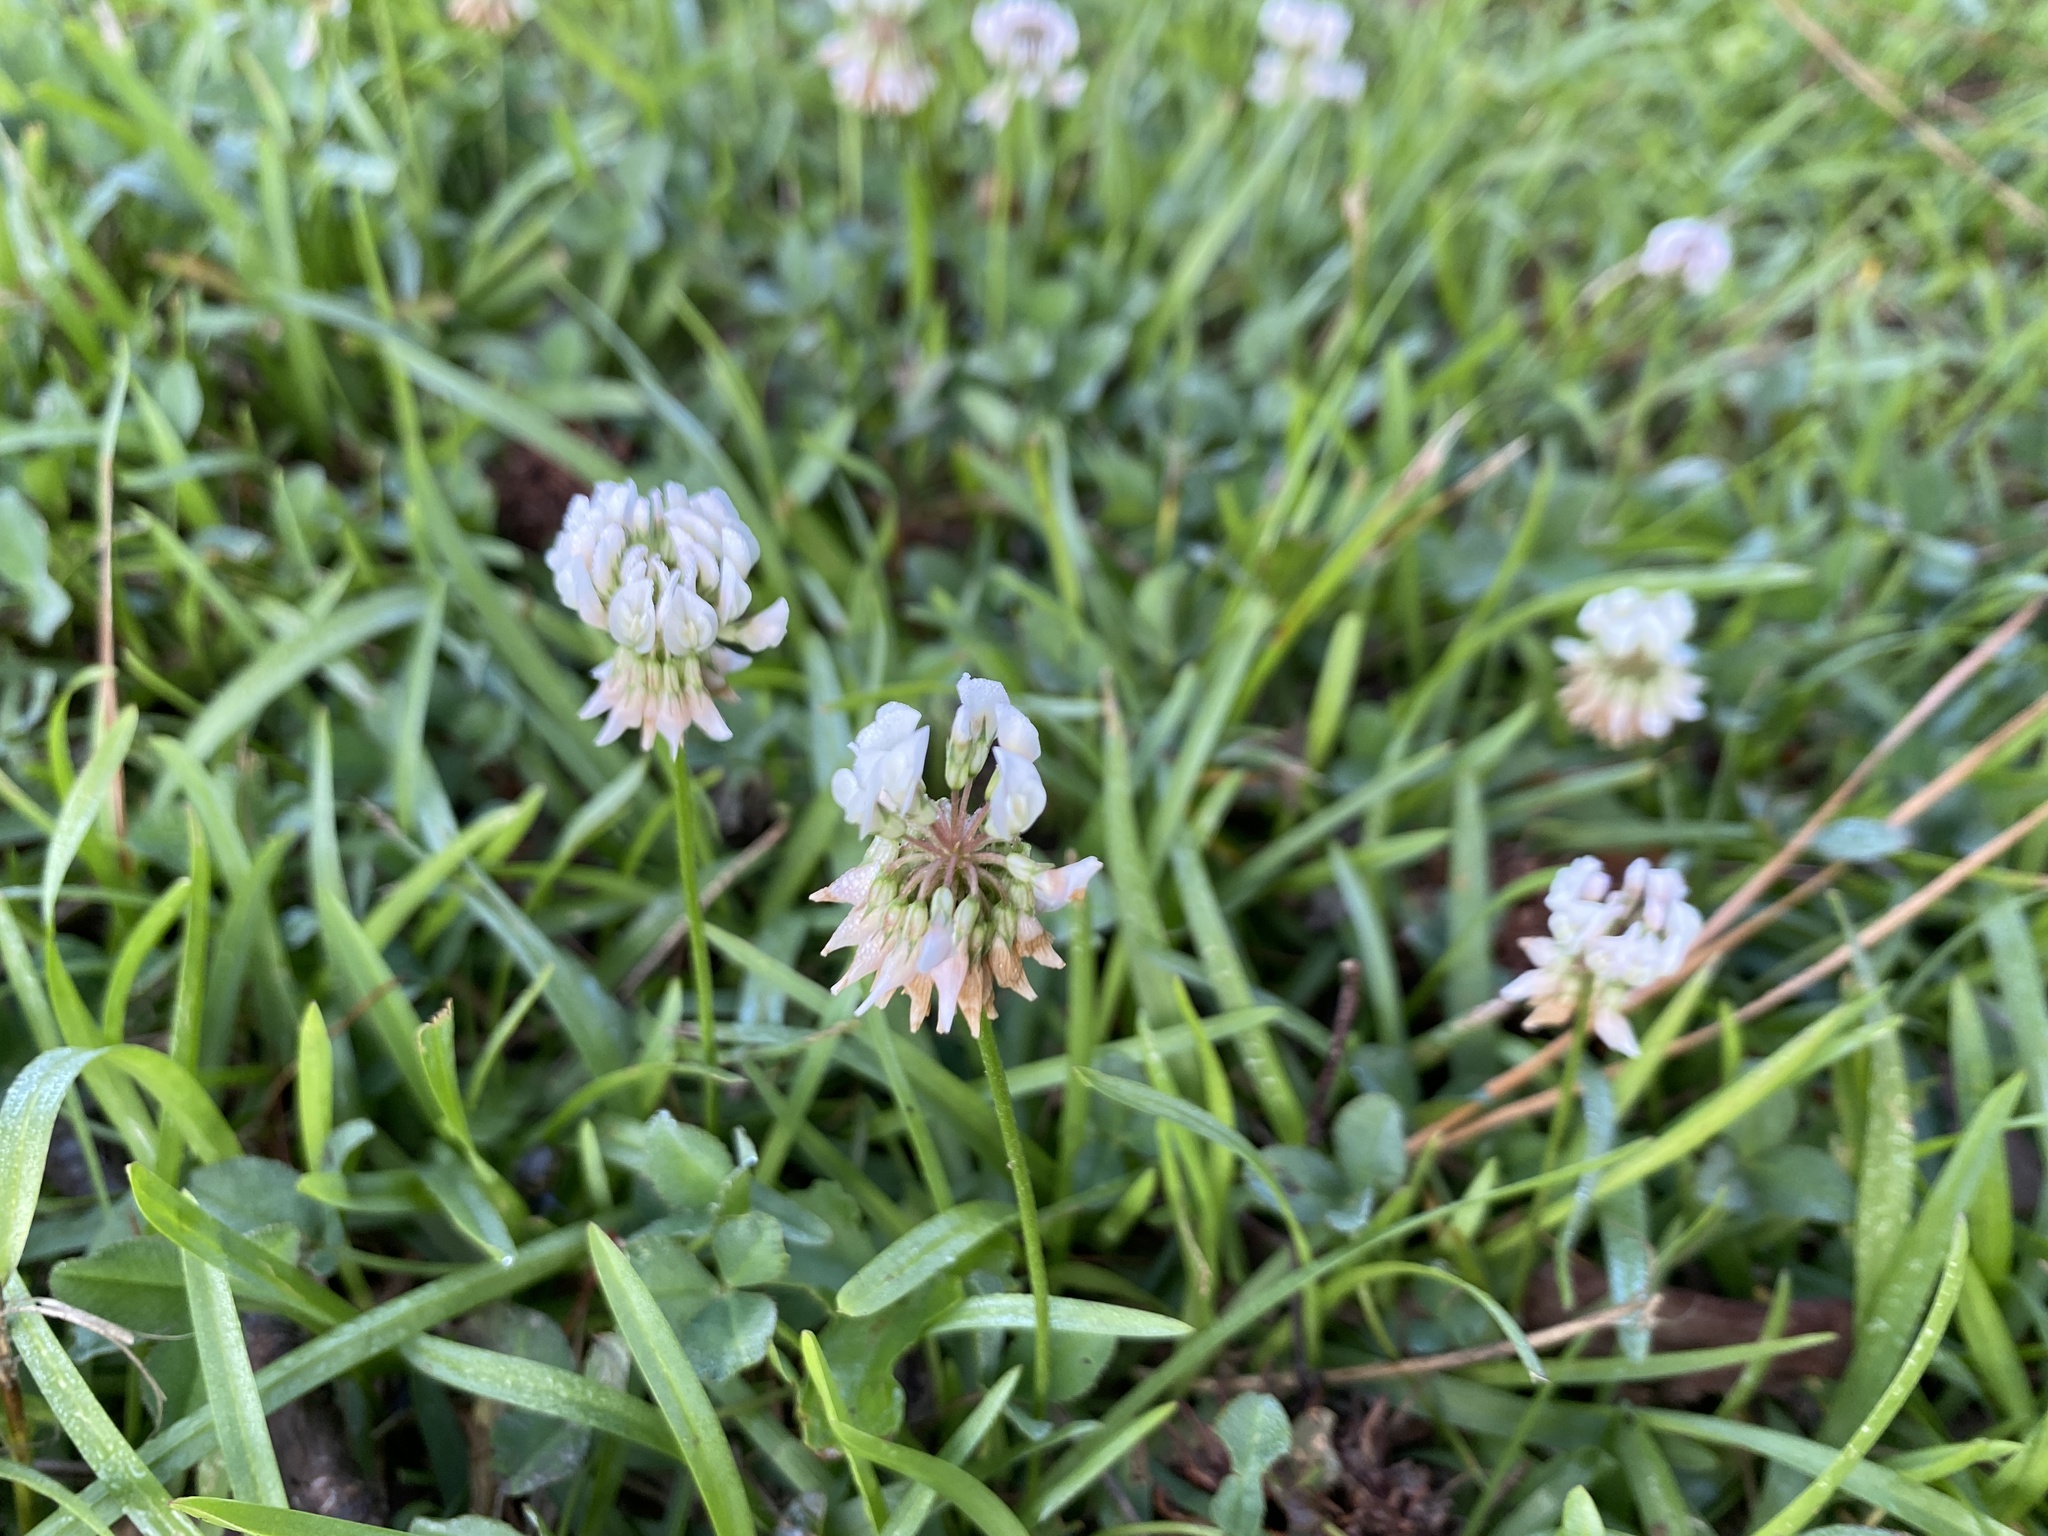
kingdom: Plantae
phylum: Tracheophyta
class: Magnoliopsida
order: Fabales
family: Fabaceae
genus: Trifolium
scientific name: Trifolium repens
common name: White clover
